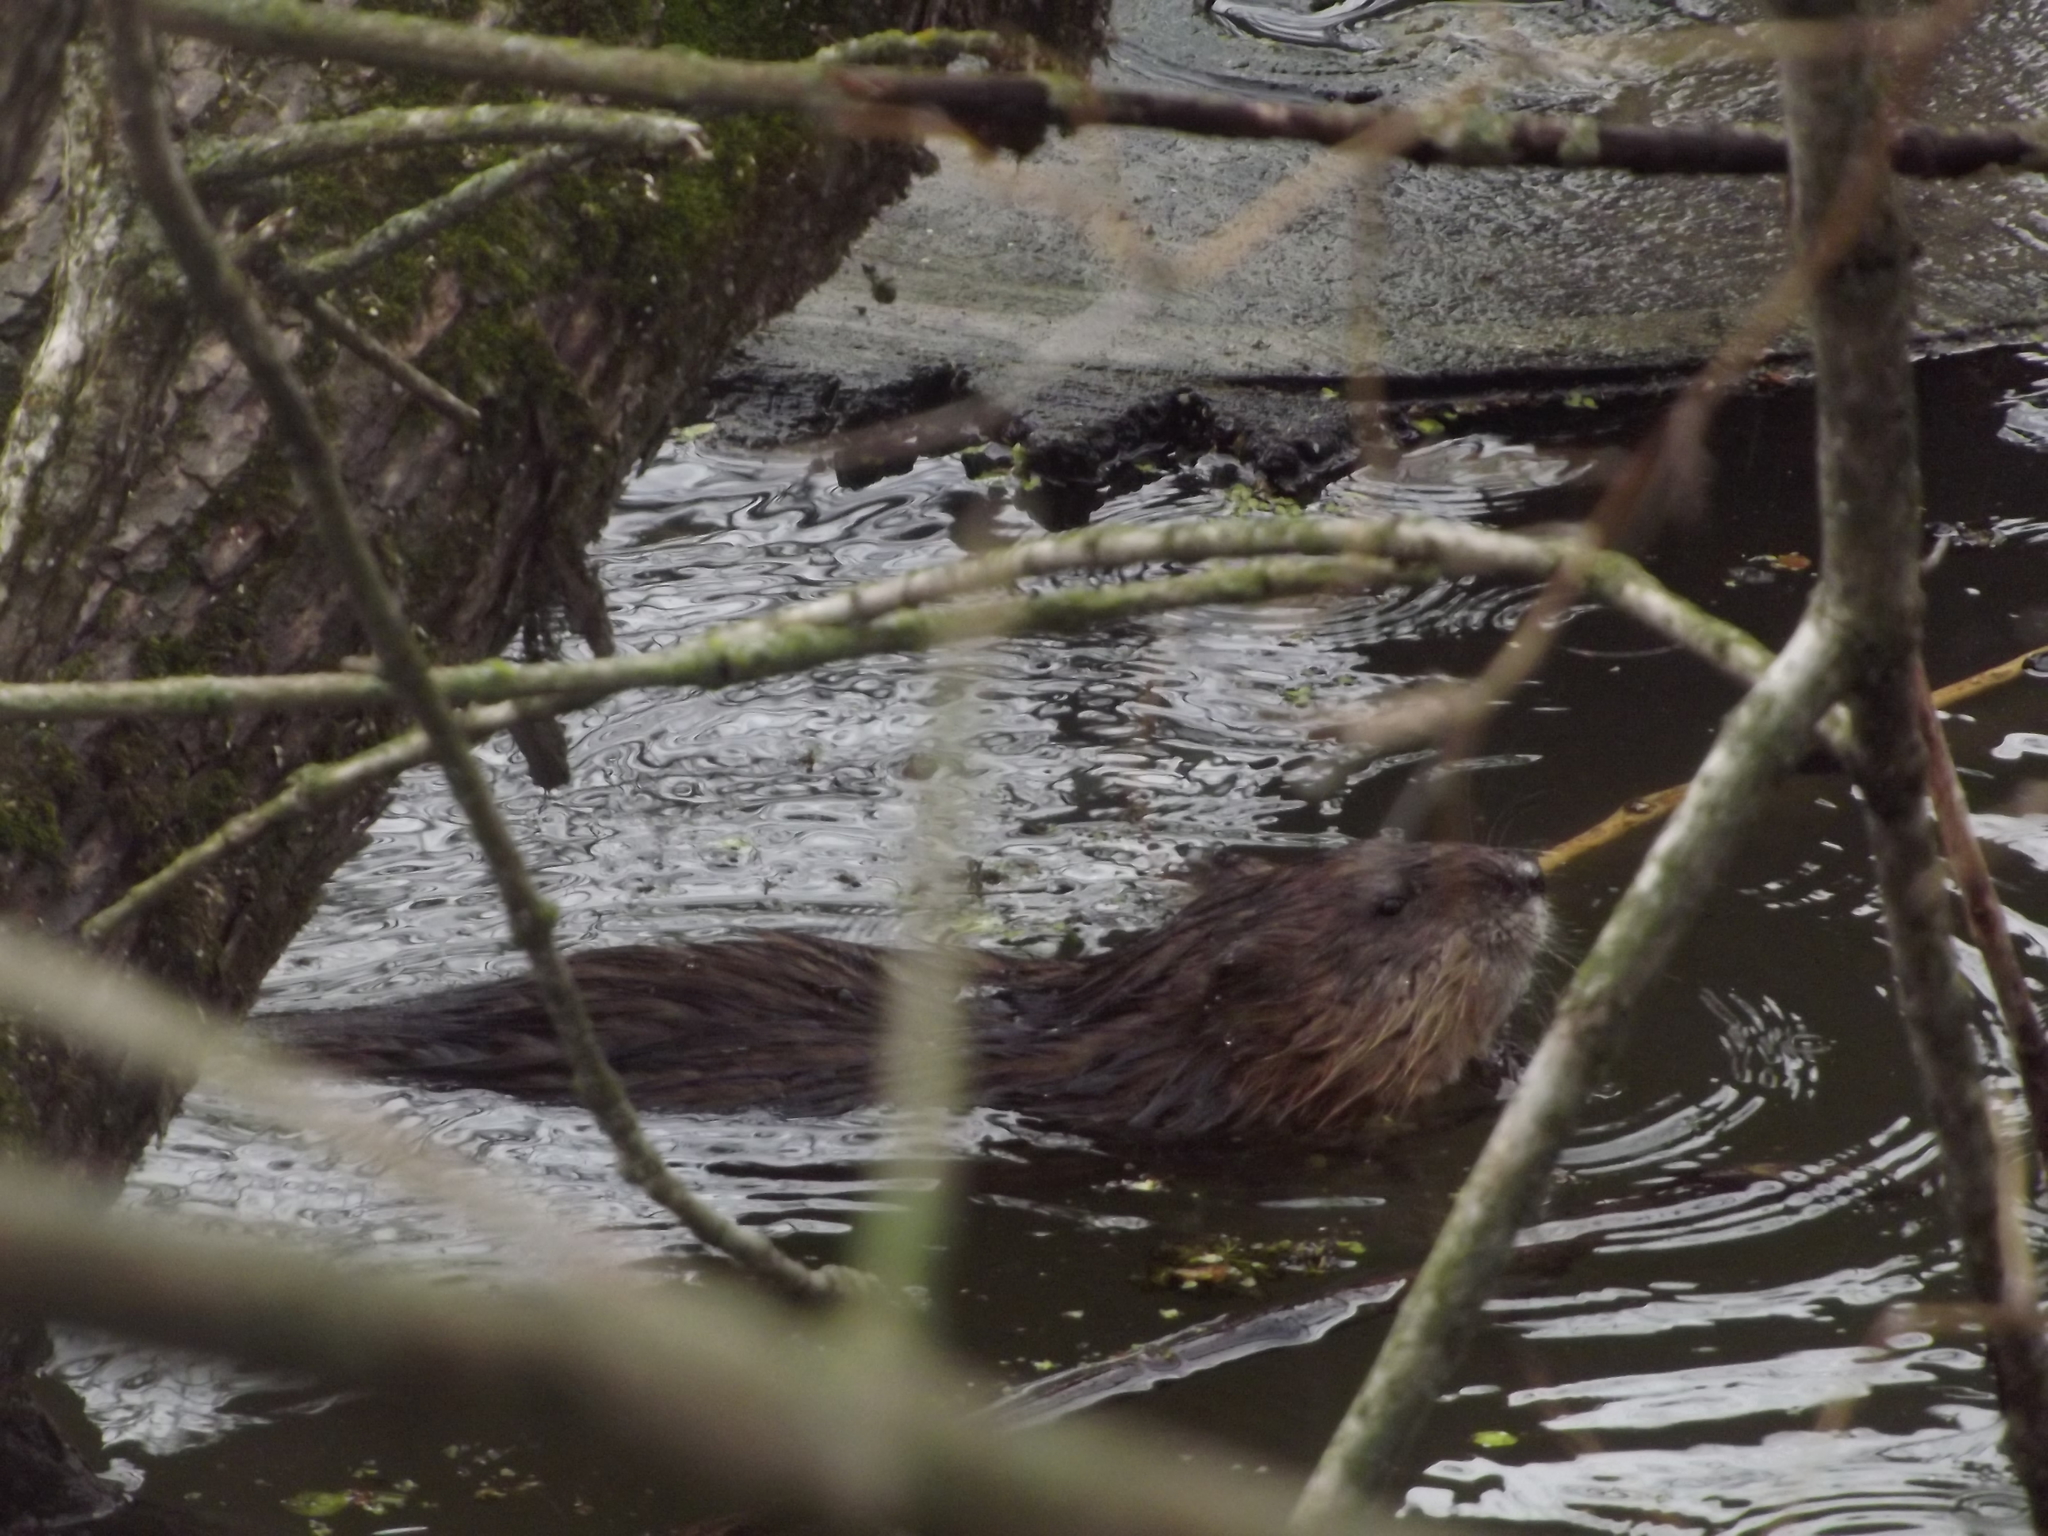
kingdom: Animalia
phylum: Chordata
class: Mammalia
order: Rodentia
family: Cricetidae
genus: Ondatra
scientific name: Ondatra zibethicus
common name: Muskrat
